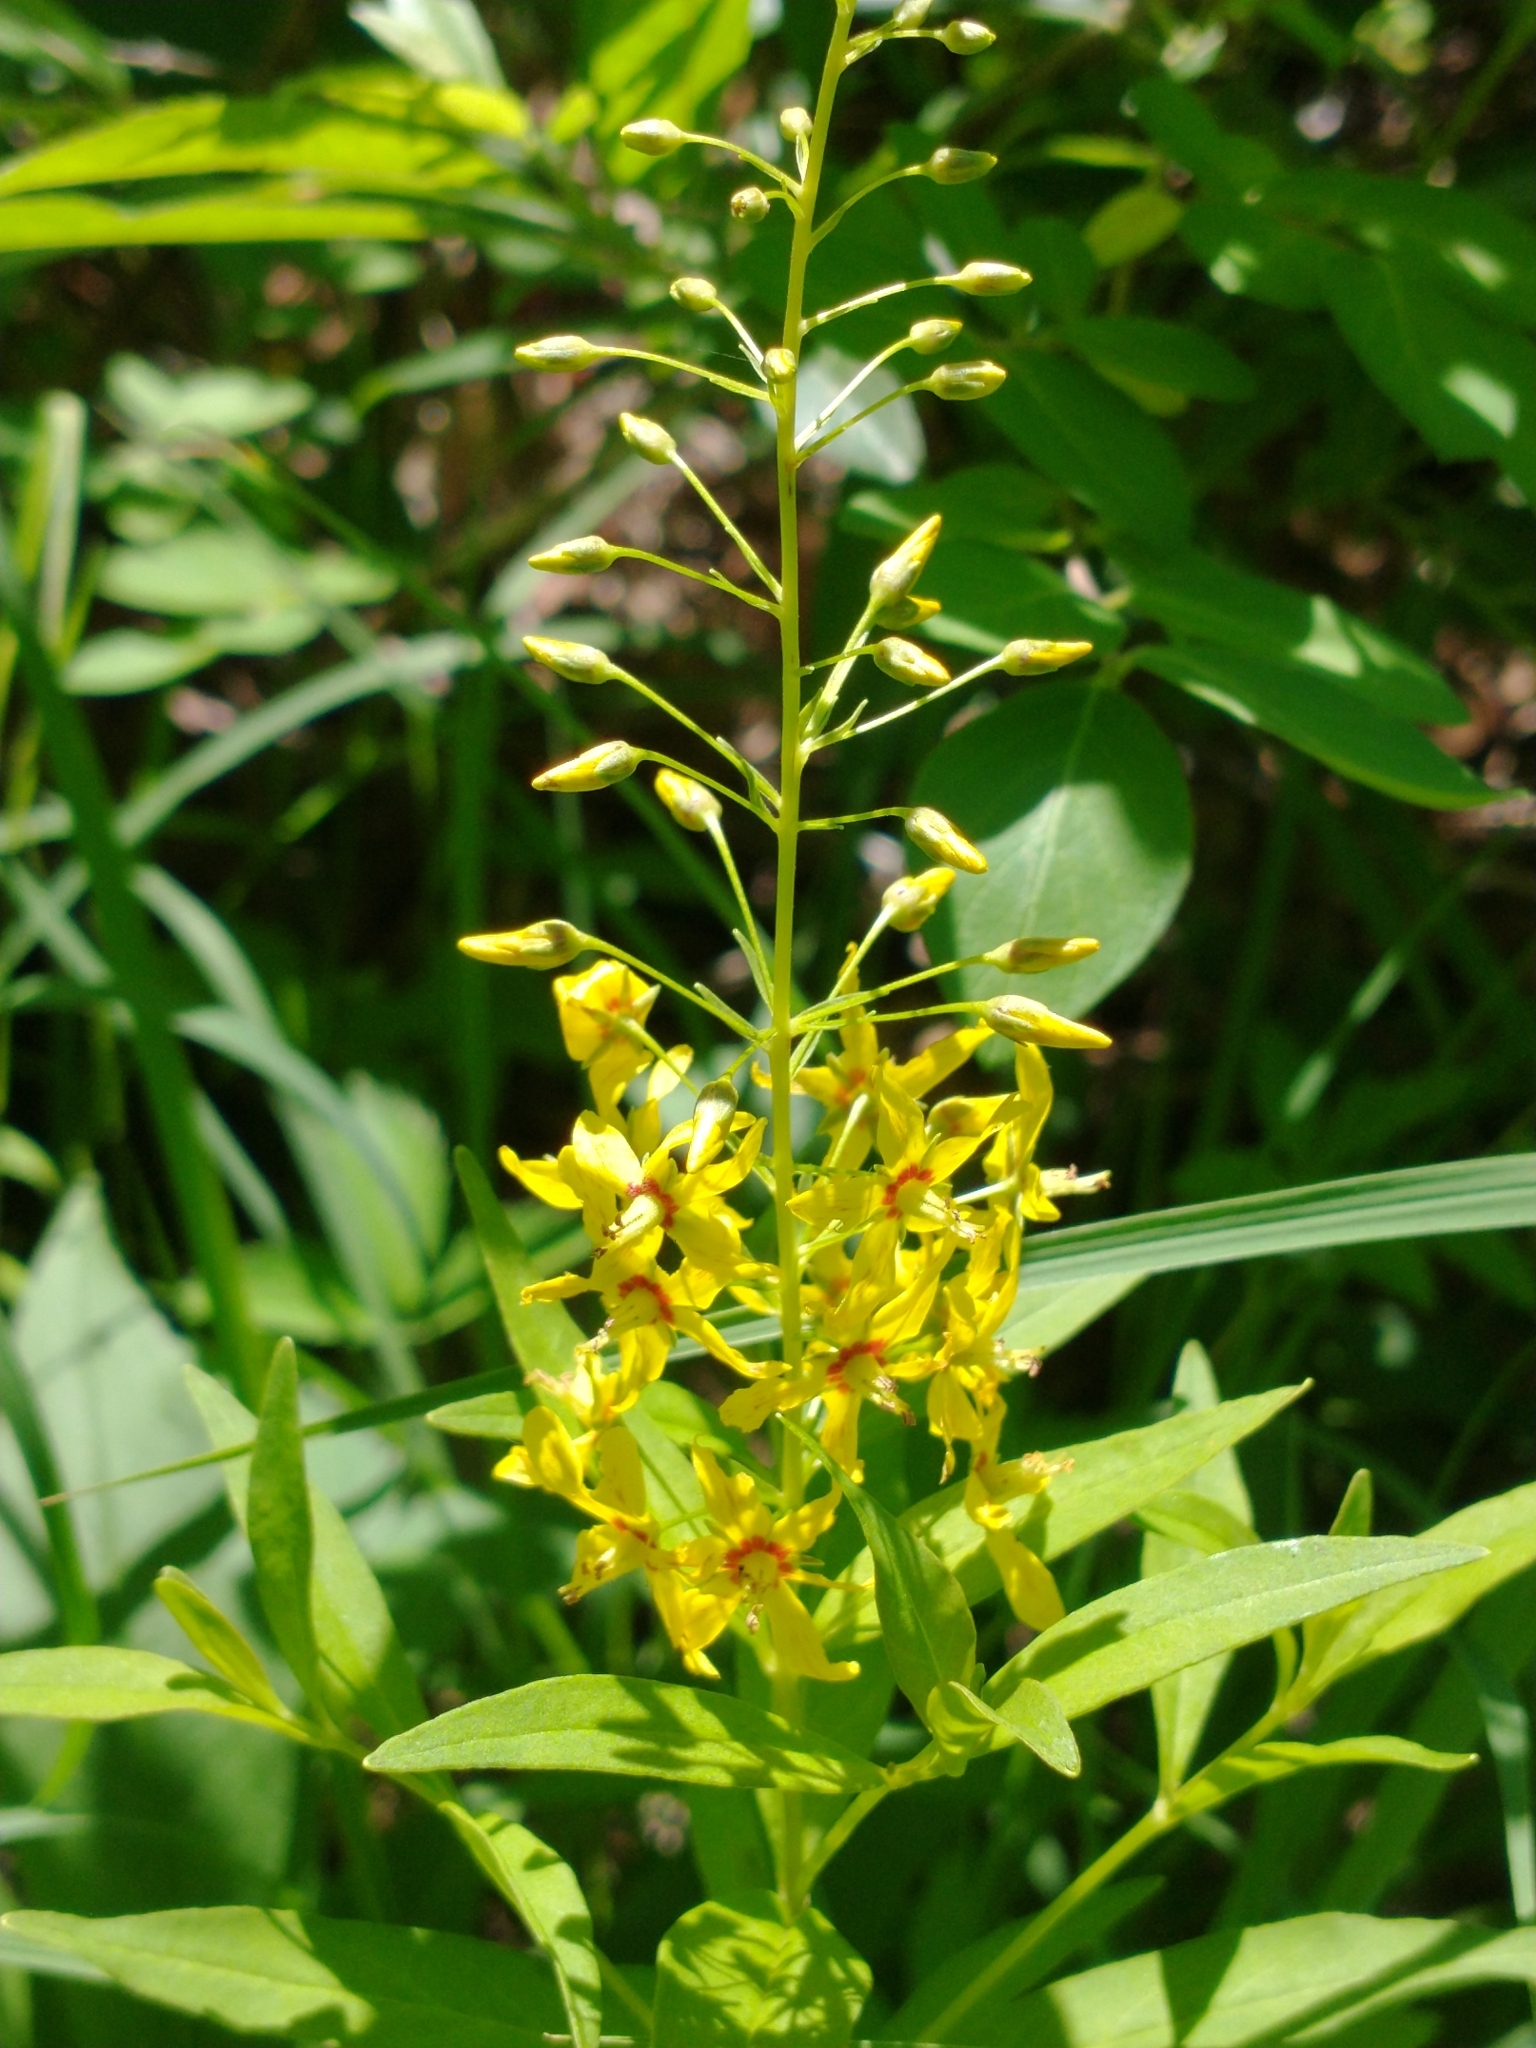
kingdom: Plantae
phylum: Tracheophyta
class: Magnoliopsida
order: Ericales
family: Primulaceae
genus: Lysimachia
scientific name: Lysimachia terrestris
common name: Lake loosestrife
